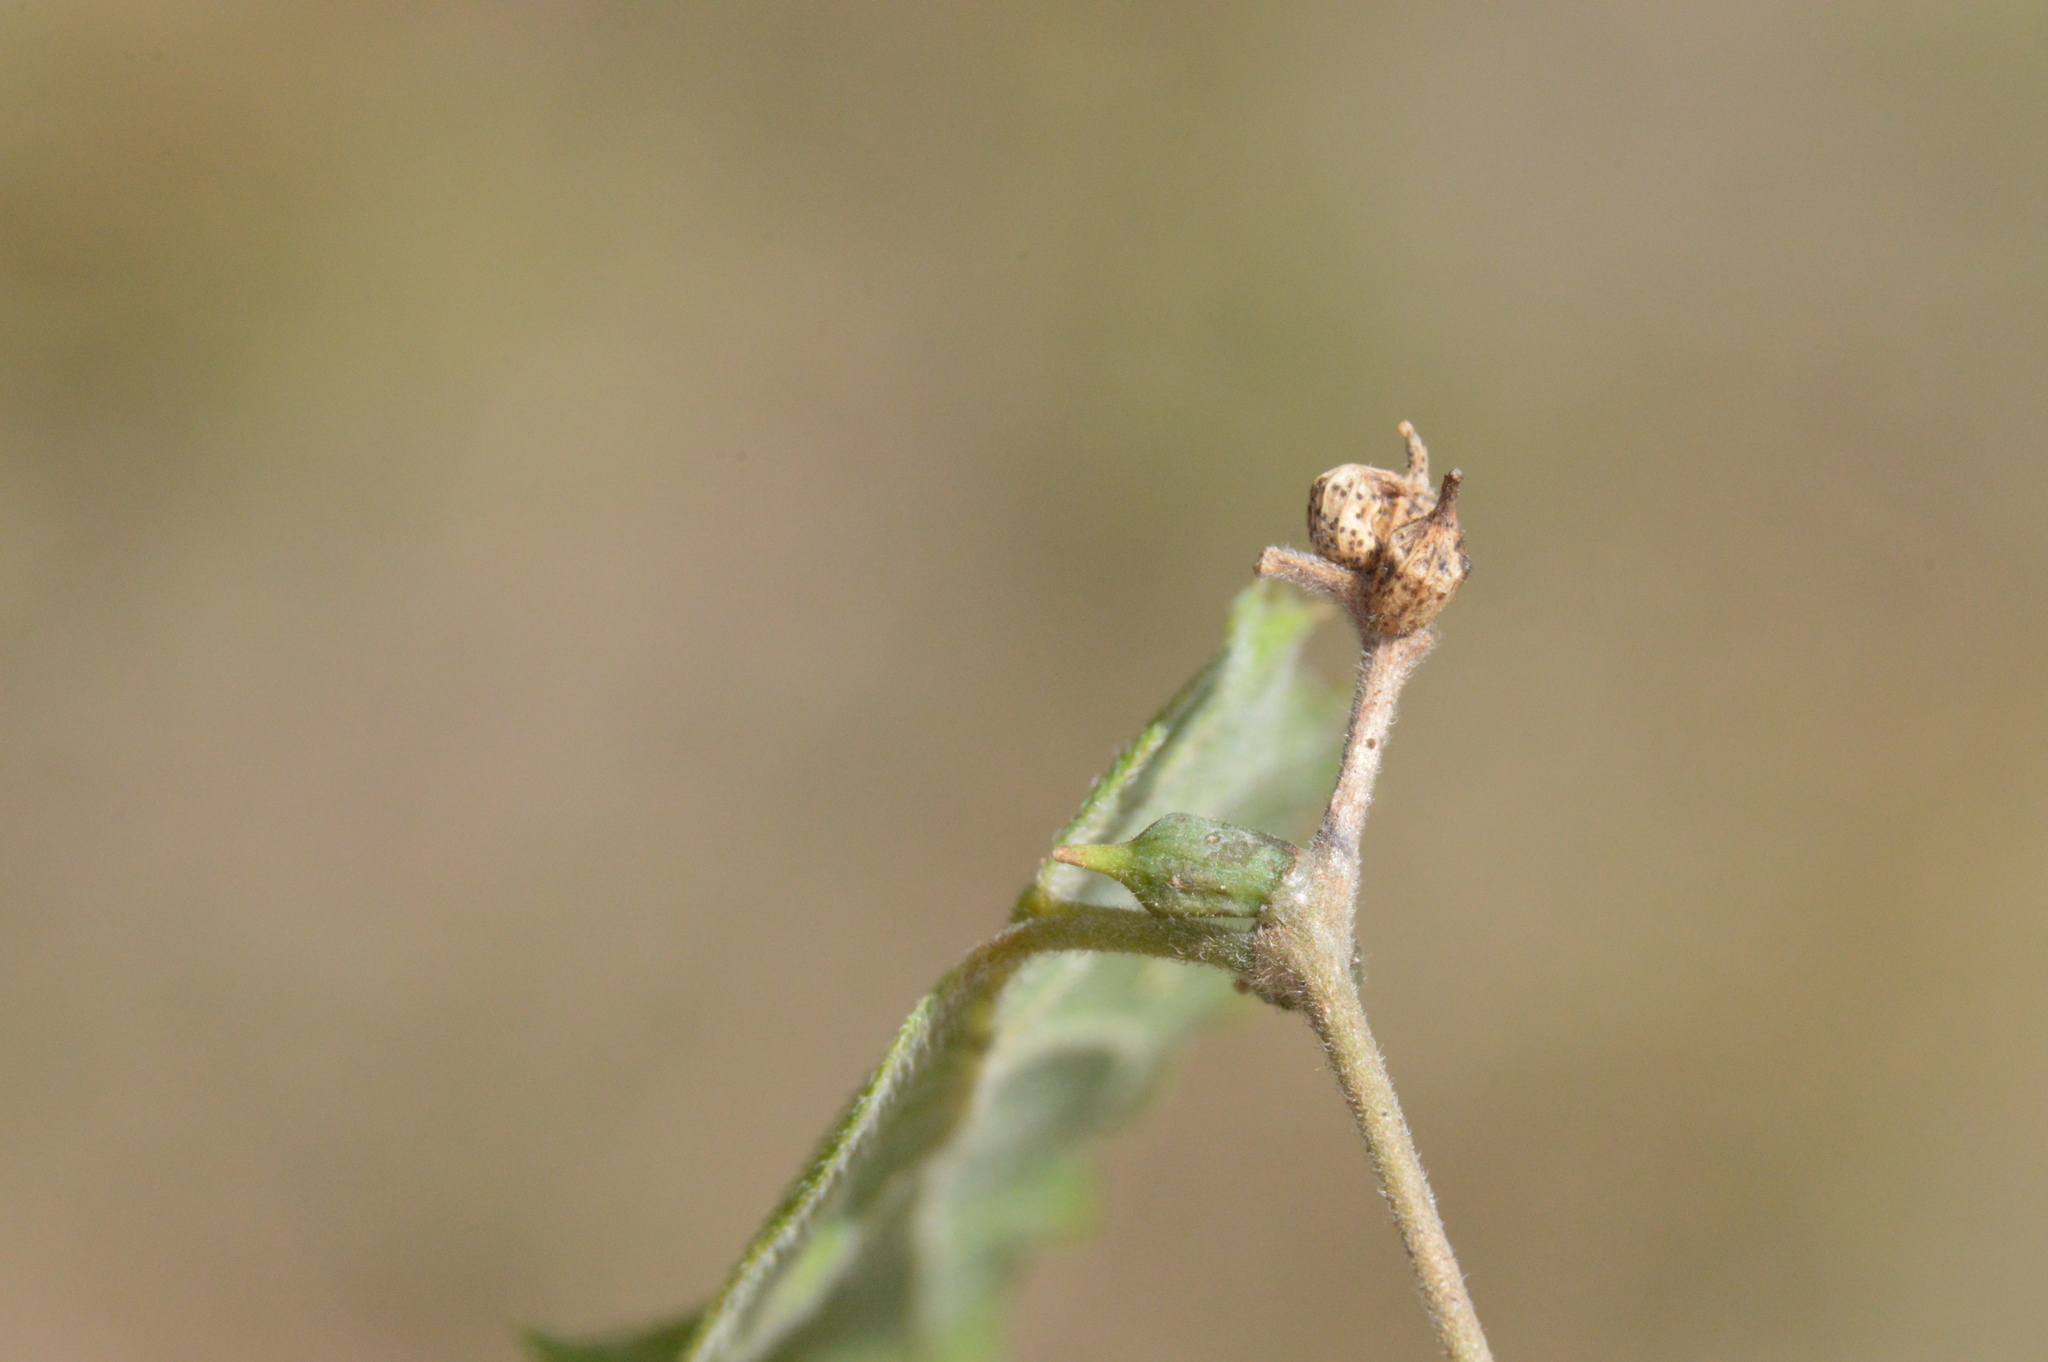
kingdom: Animalia
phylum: Arthropoda
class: Insecta
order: Diptera
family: Cecidomyiidae
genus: Celticecis
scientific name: Celticecis ramicola
